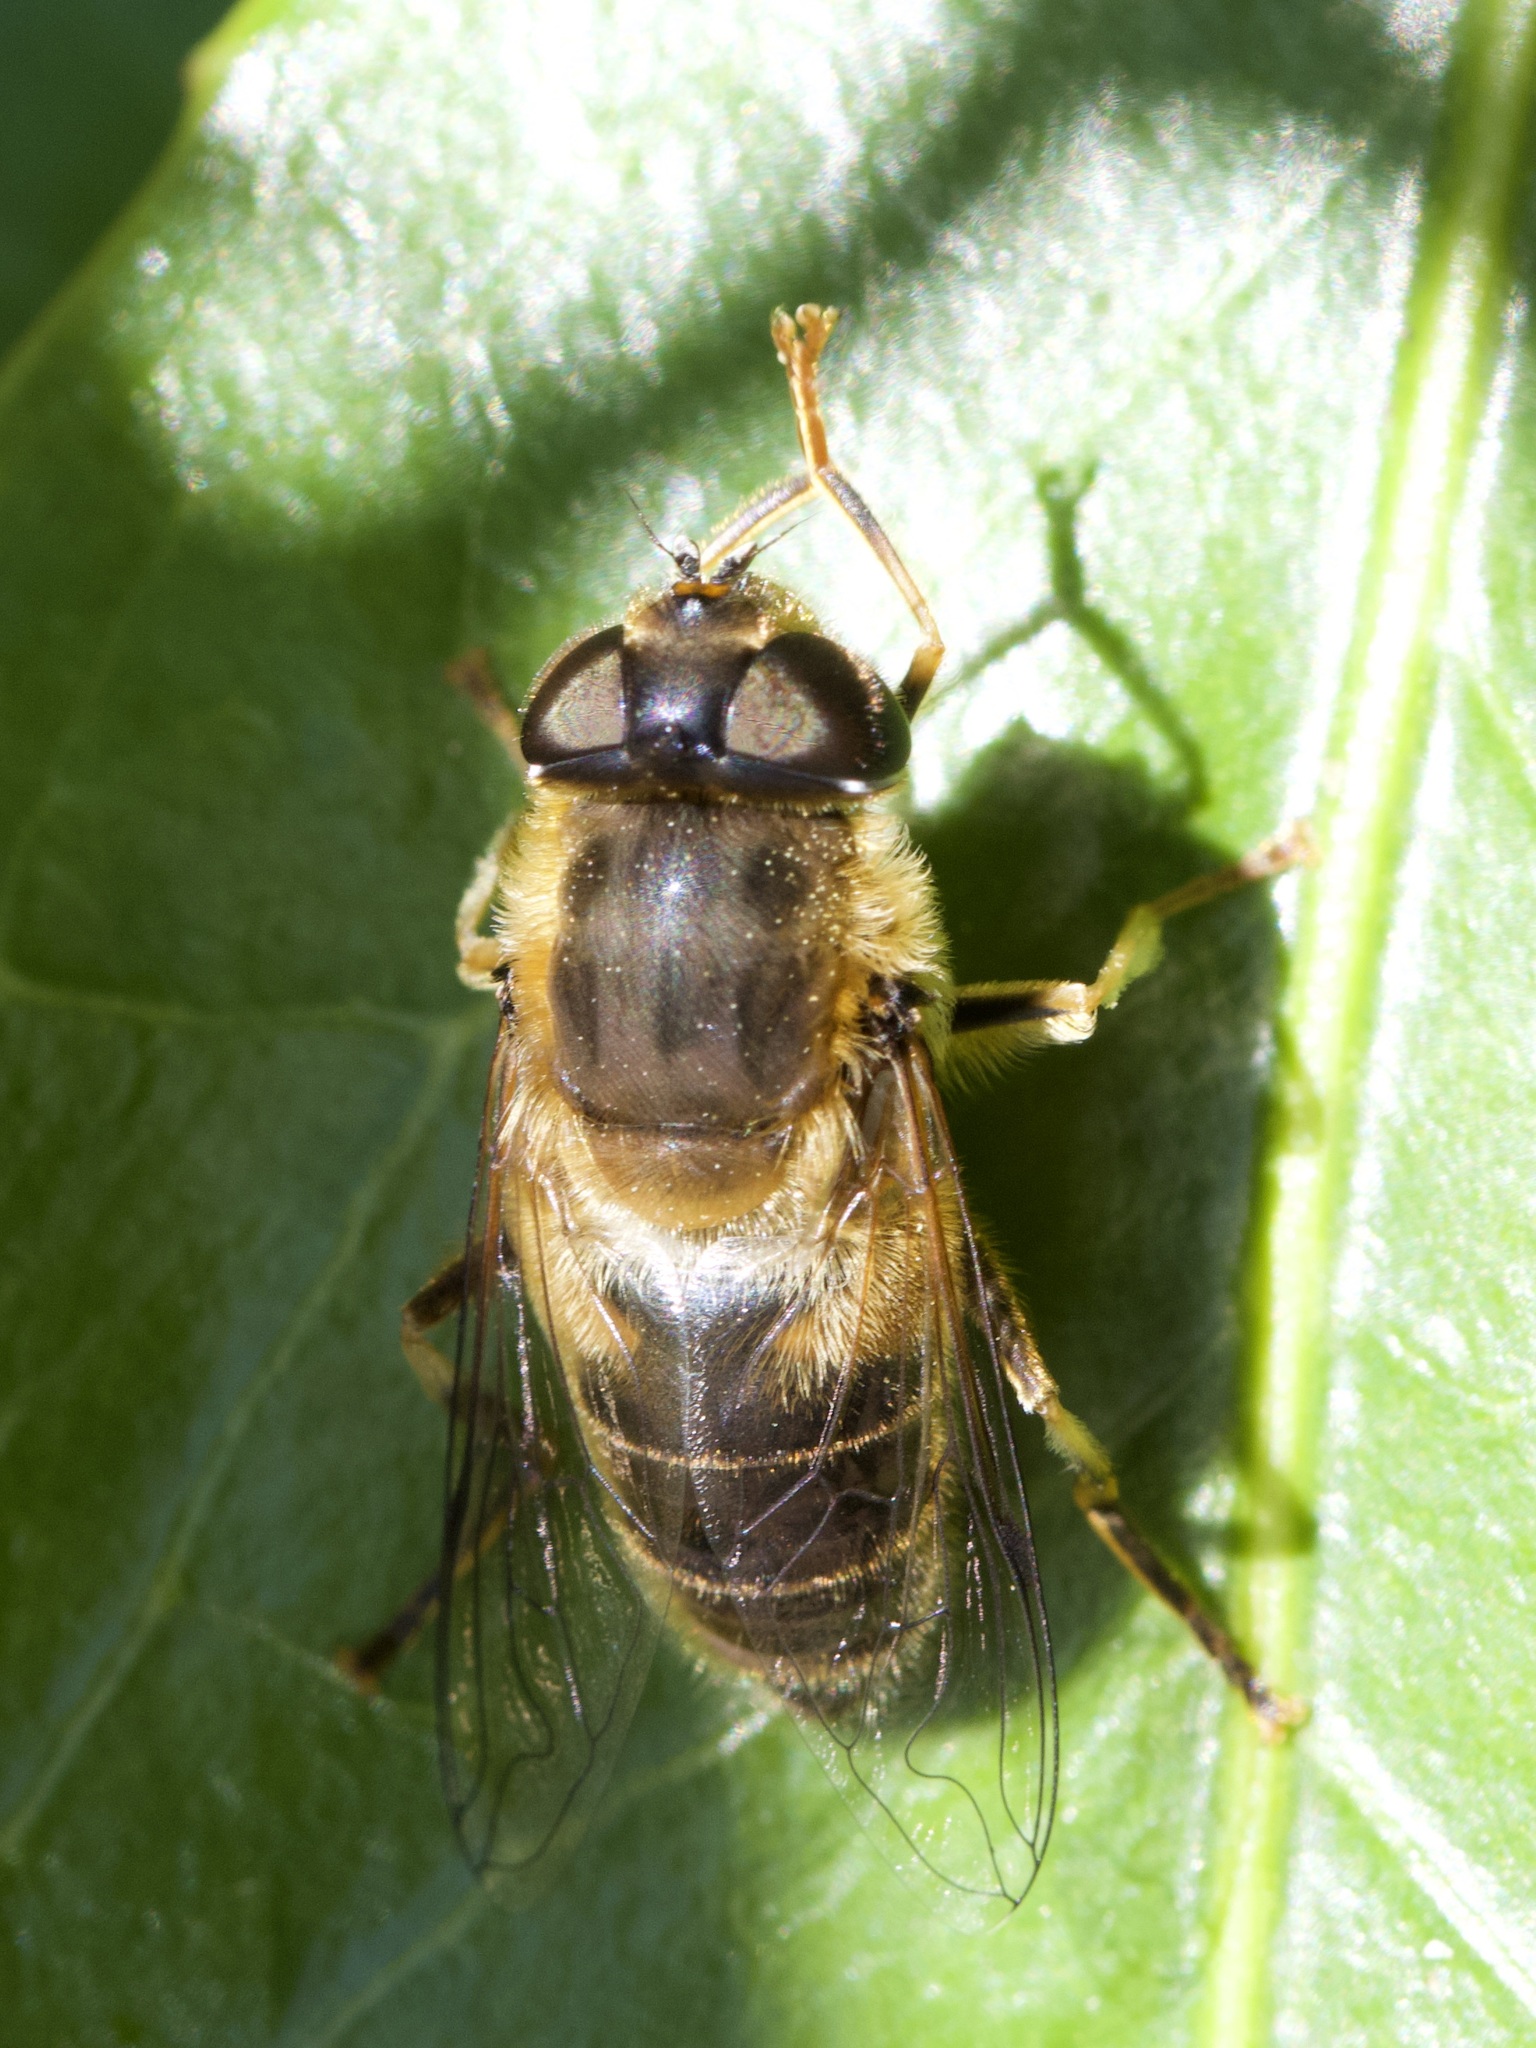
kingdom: Animalia
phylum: Arthropoda
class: Insecta
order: Diptera
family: Syrphidae
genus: Eristalis
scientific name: Eristalis pertinax
